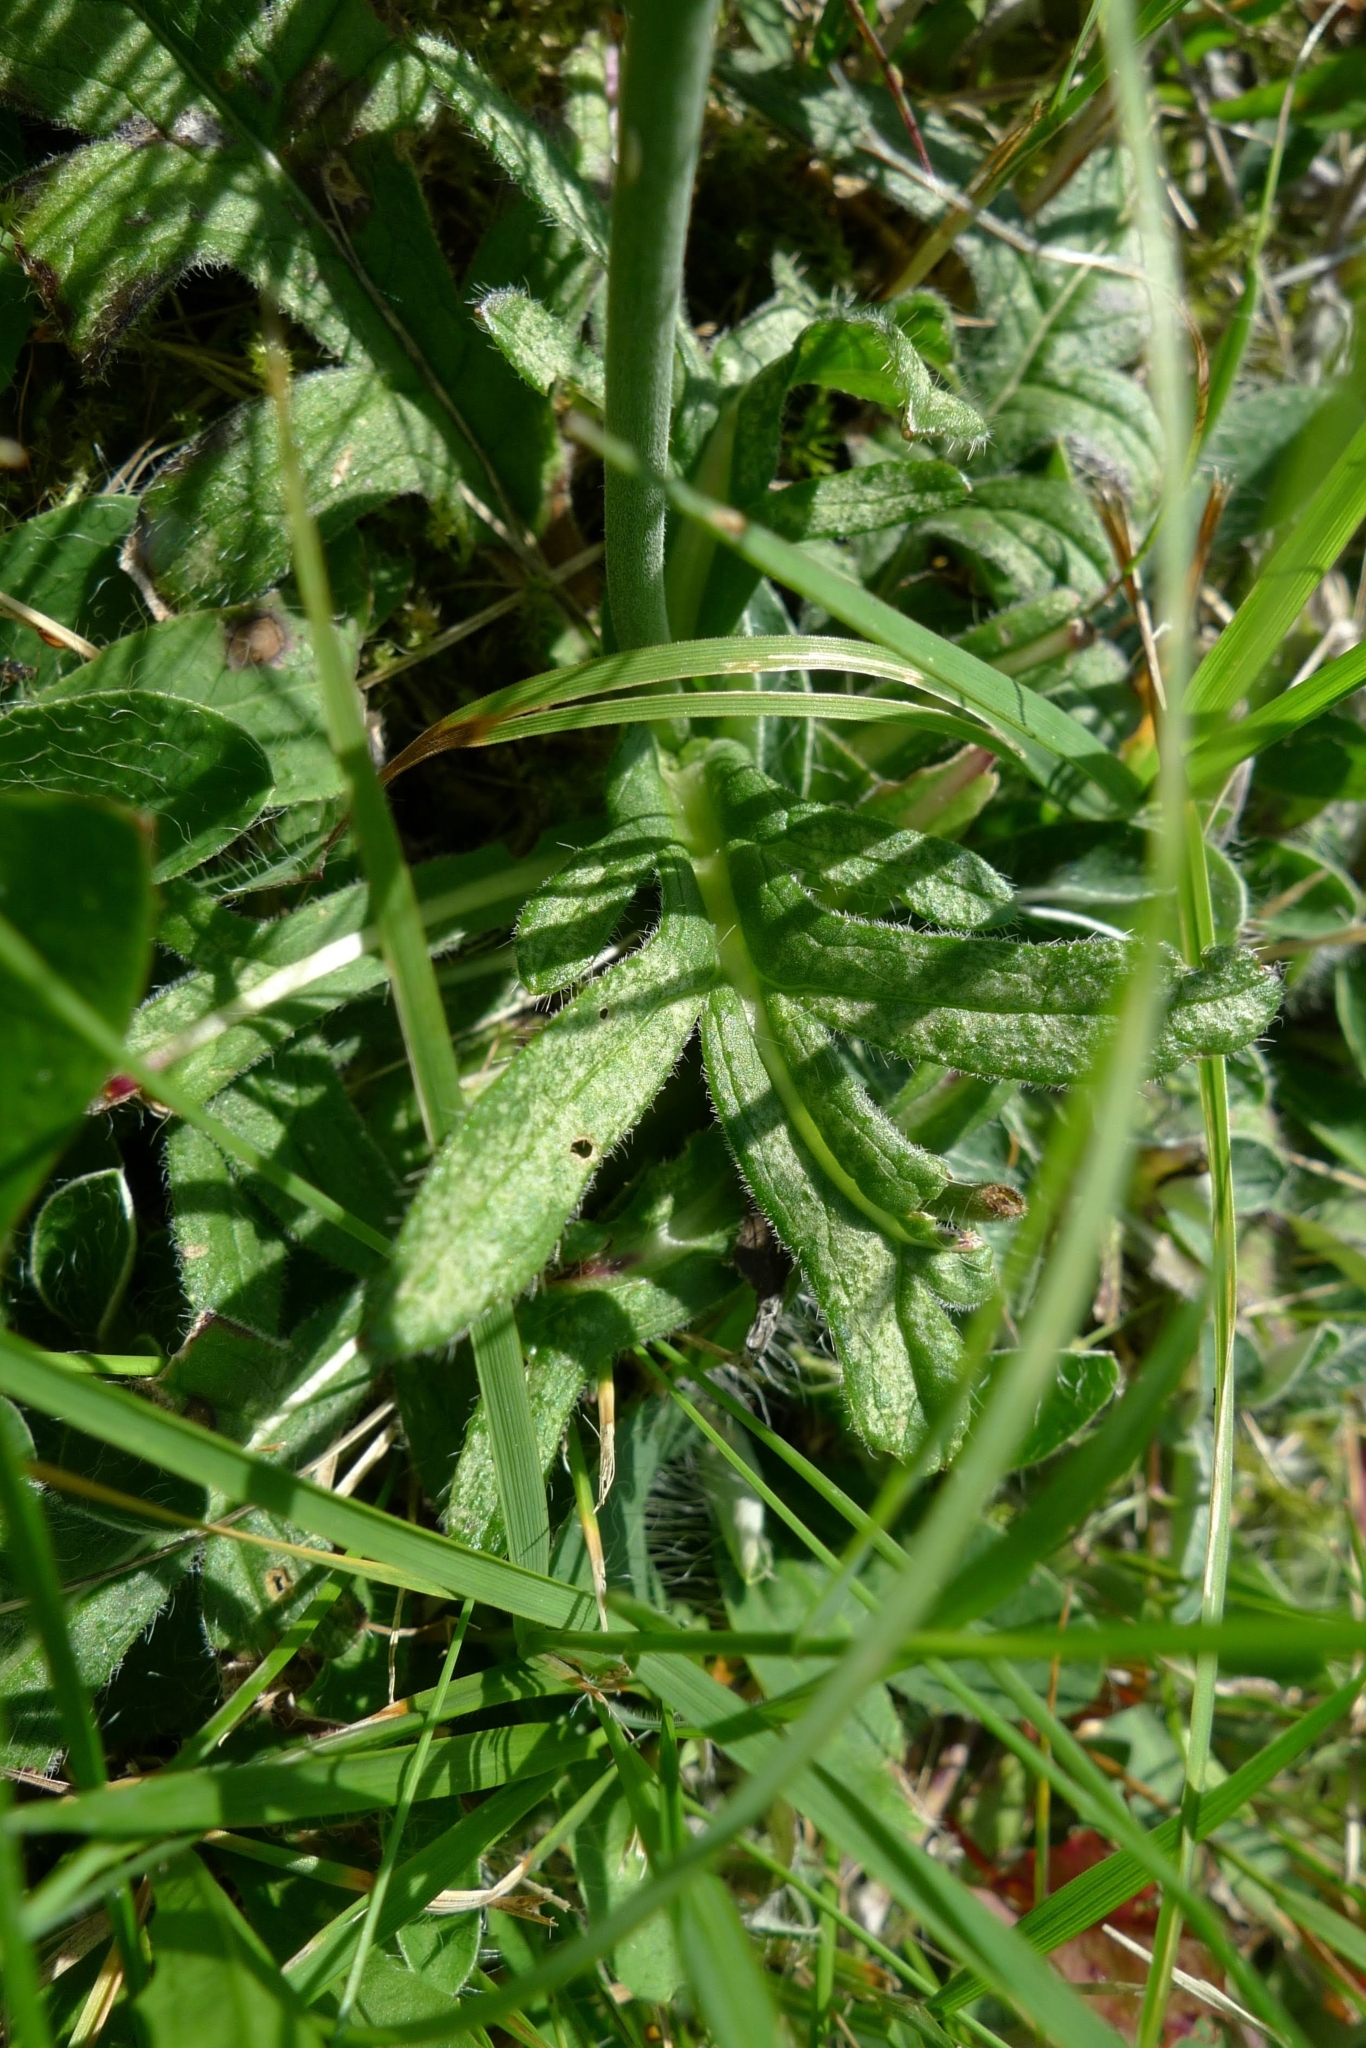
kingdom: Plantae
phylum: Tracheophyta
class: Magnoliopsida
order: Dipsacales
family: Caprifoliaceae
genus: Knautia
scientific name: Knautia arvensis
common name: Field scabiosa
